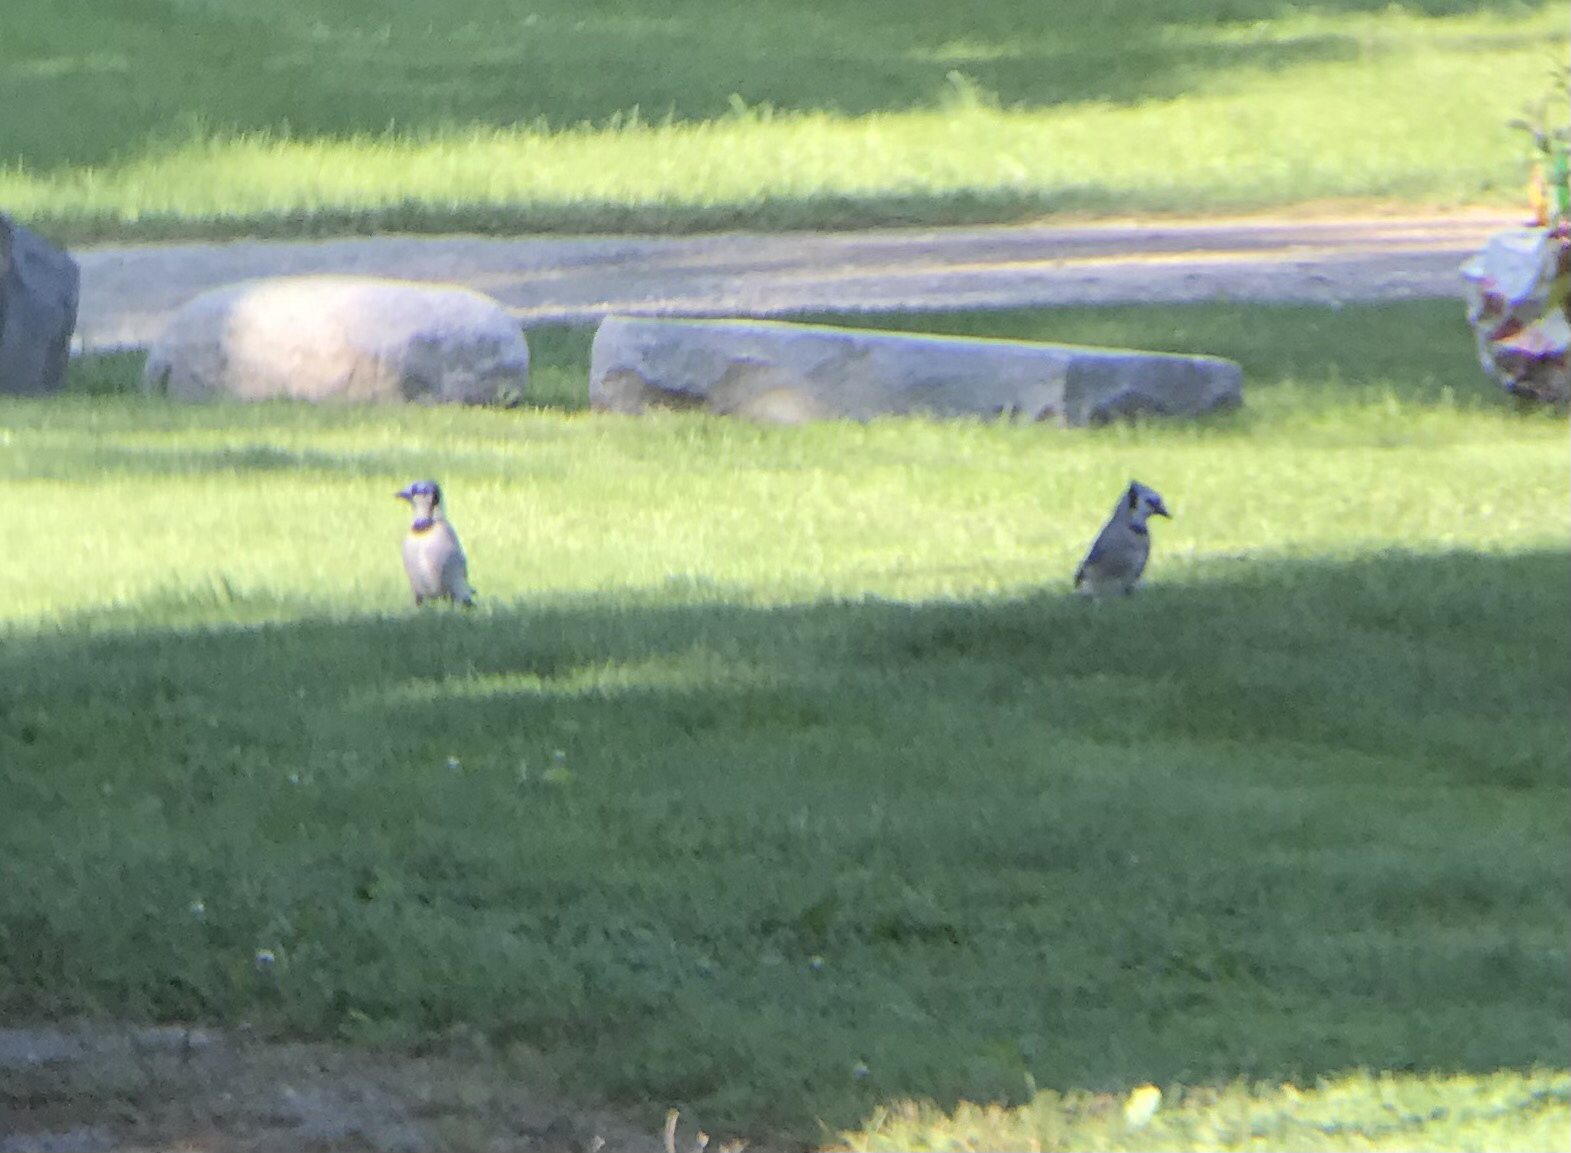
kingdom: Animalia
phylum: Chordata
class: Aves
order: Passeriformes
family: Corvidae
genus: Cyanocitta
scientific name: Cyanocitta cristata
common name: Blue jay
